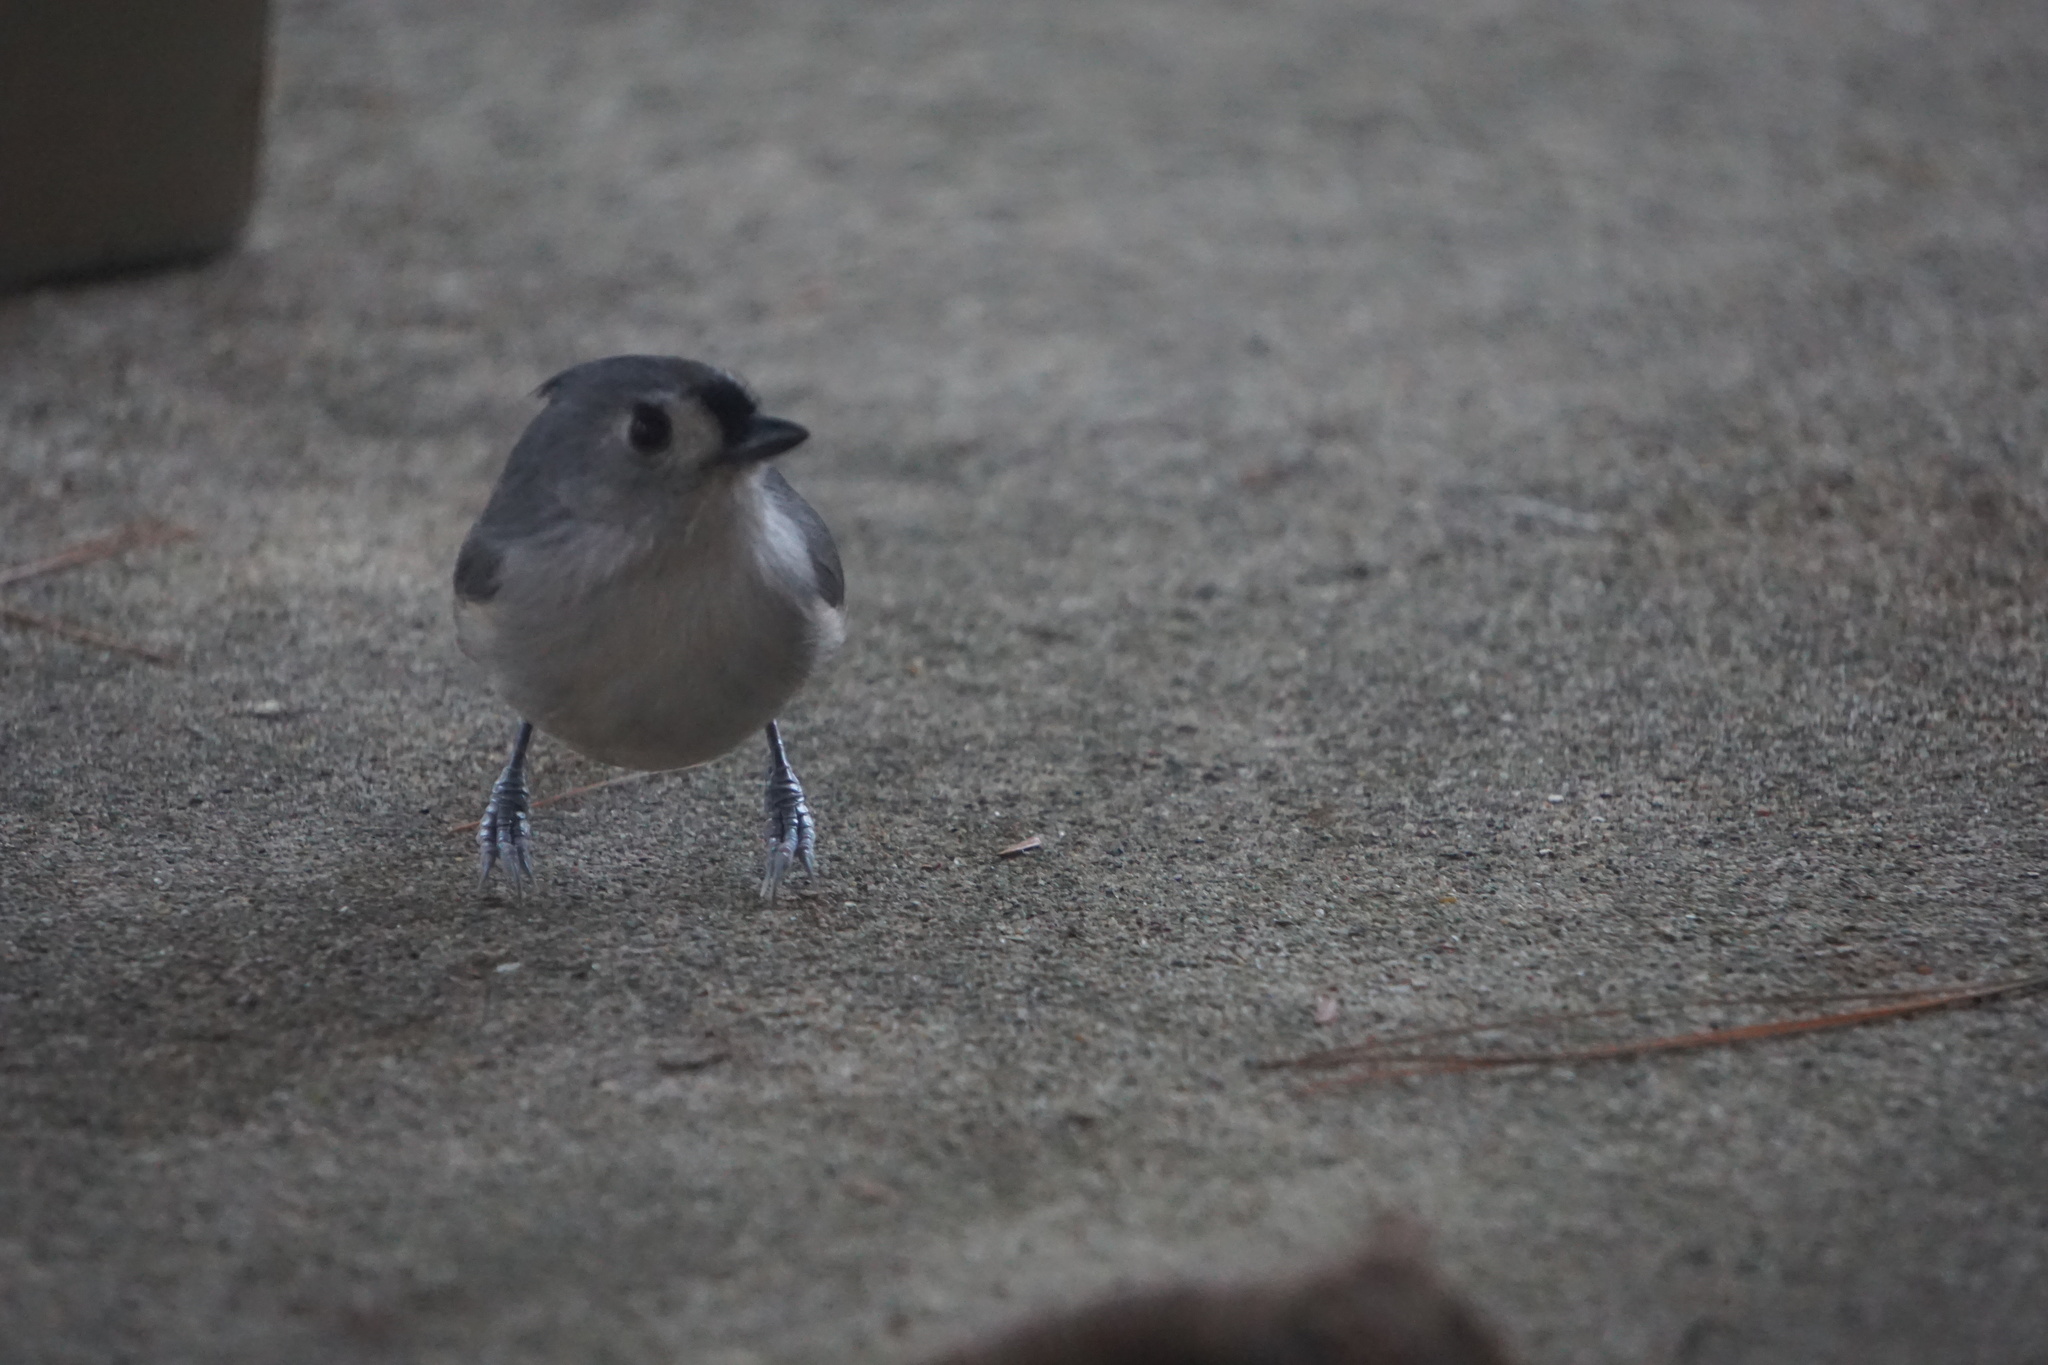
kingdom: Animalia
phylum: Chordata
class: Aves
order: Passeriformes
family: Paridae
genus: Baeolophus
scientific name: Baeolophus bicolor
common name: Tufted titmouse
